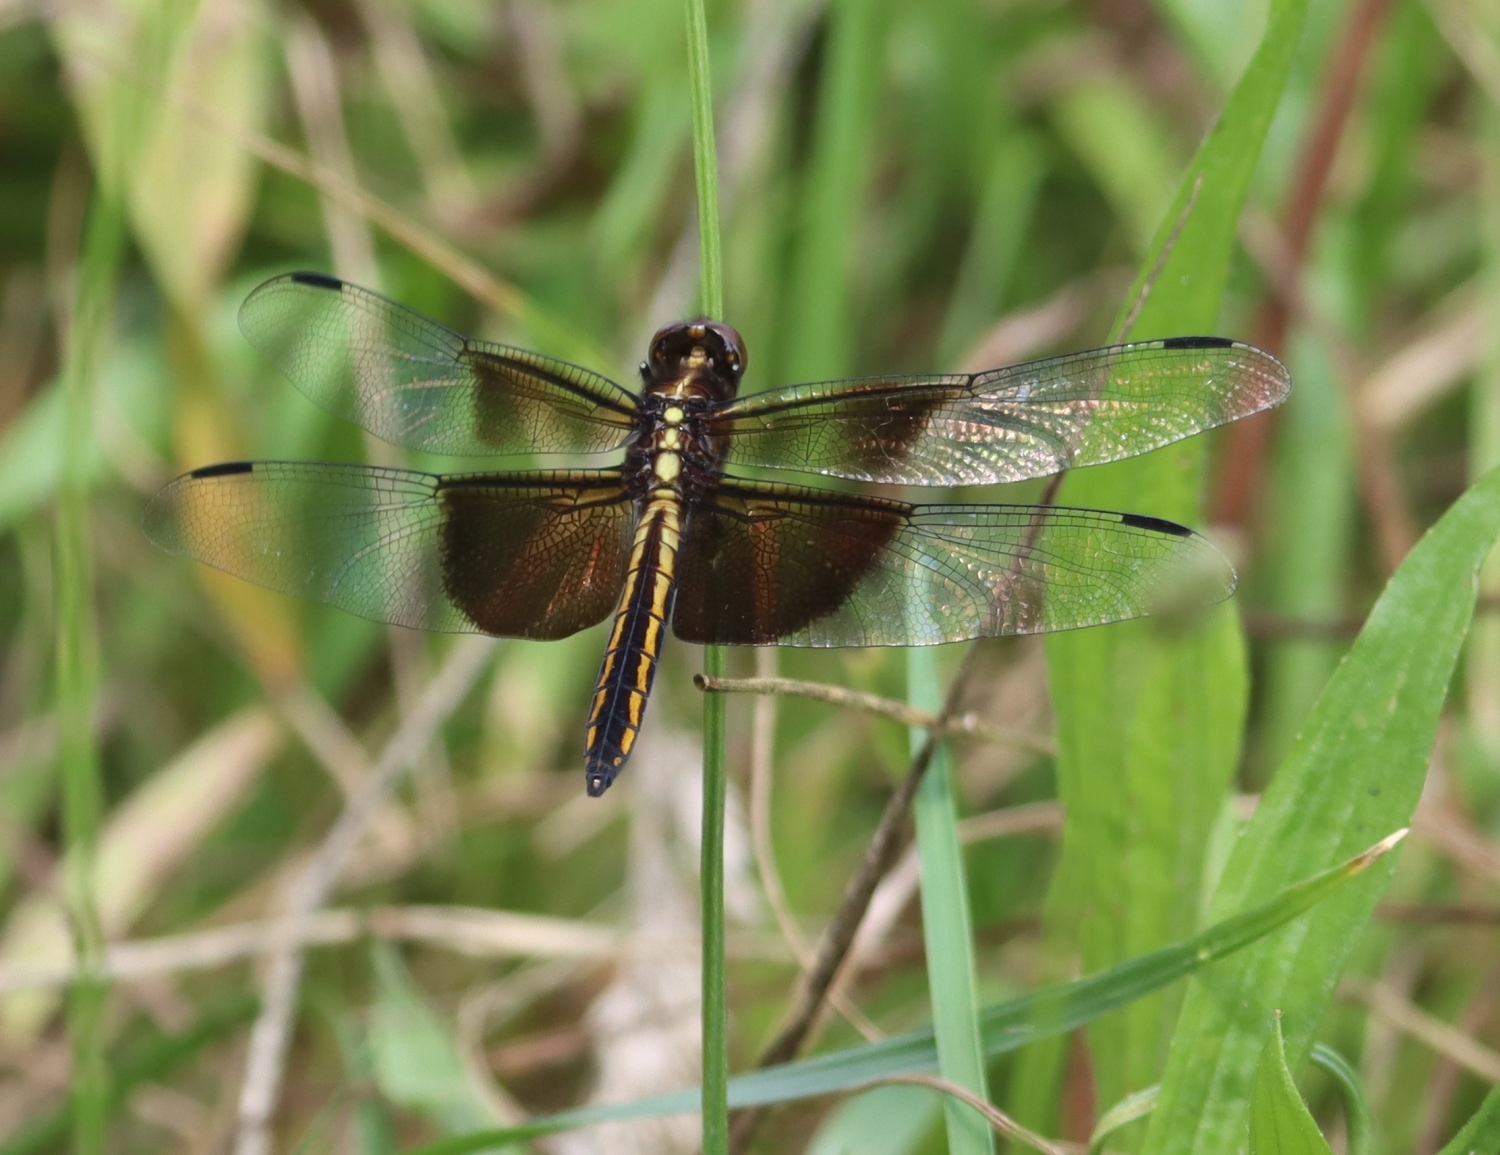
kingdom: Animalia
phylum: Arthropoda
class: Insecta
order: Odonata
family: Libellulidae
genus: Libellula
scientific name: Libellula luctuosa
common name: Widow skimmer
